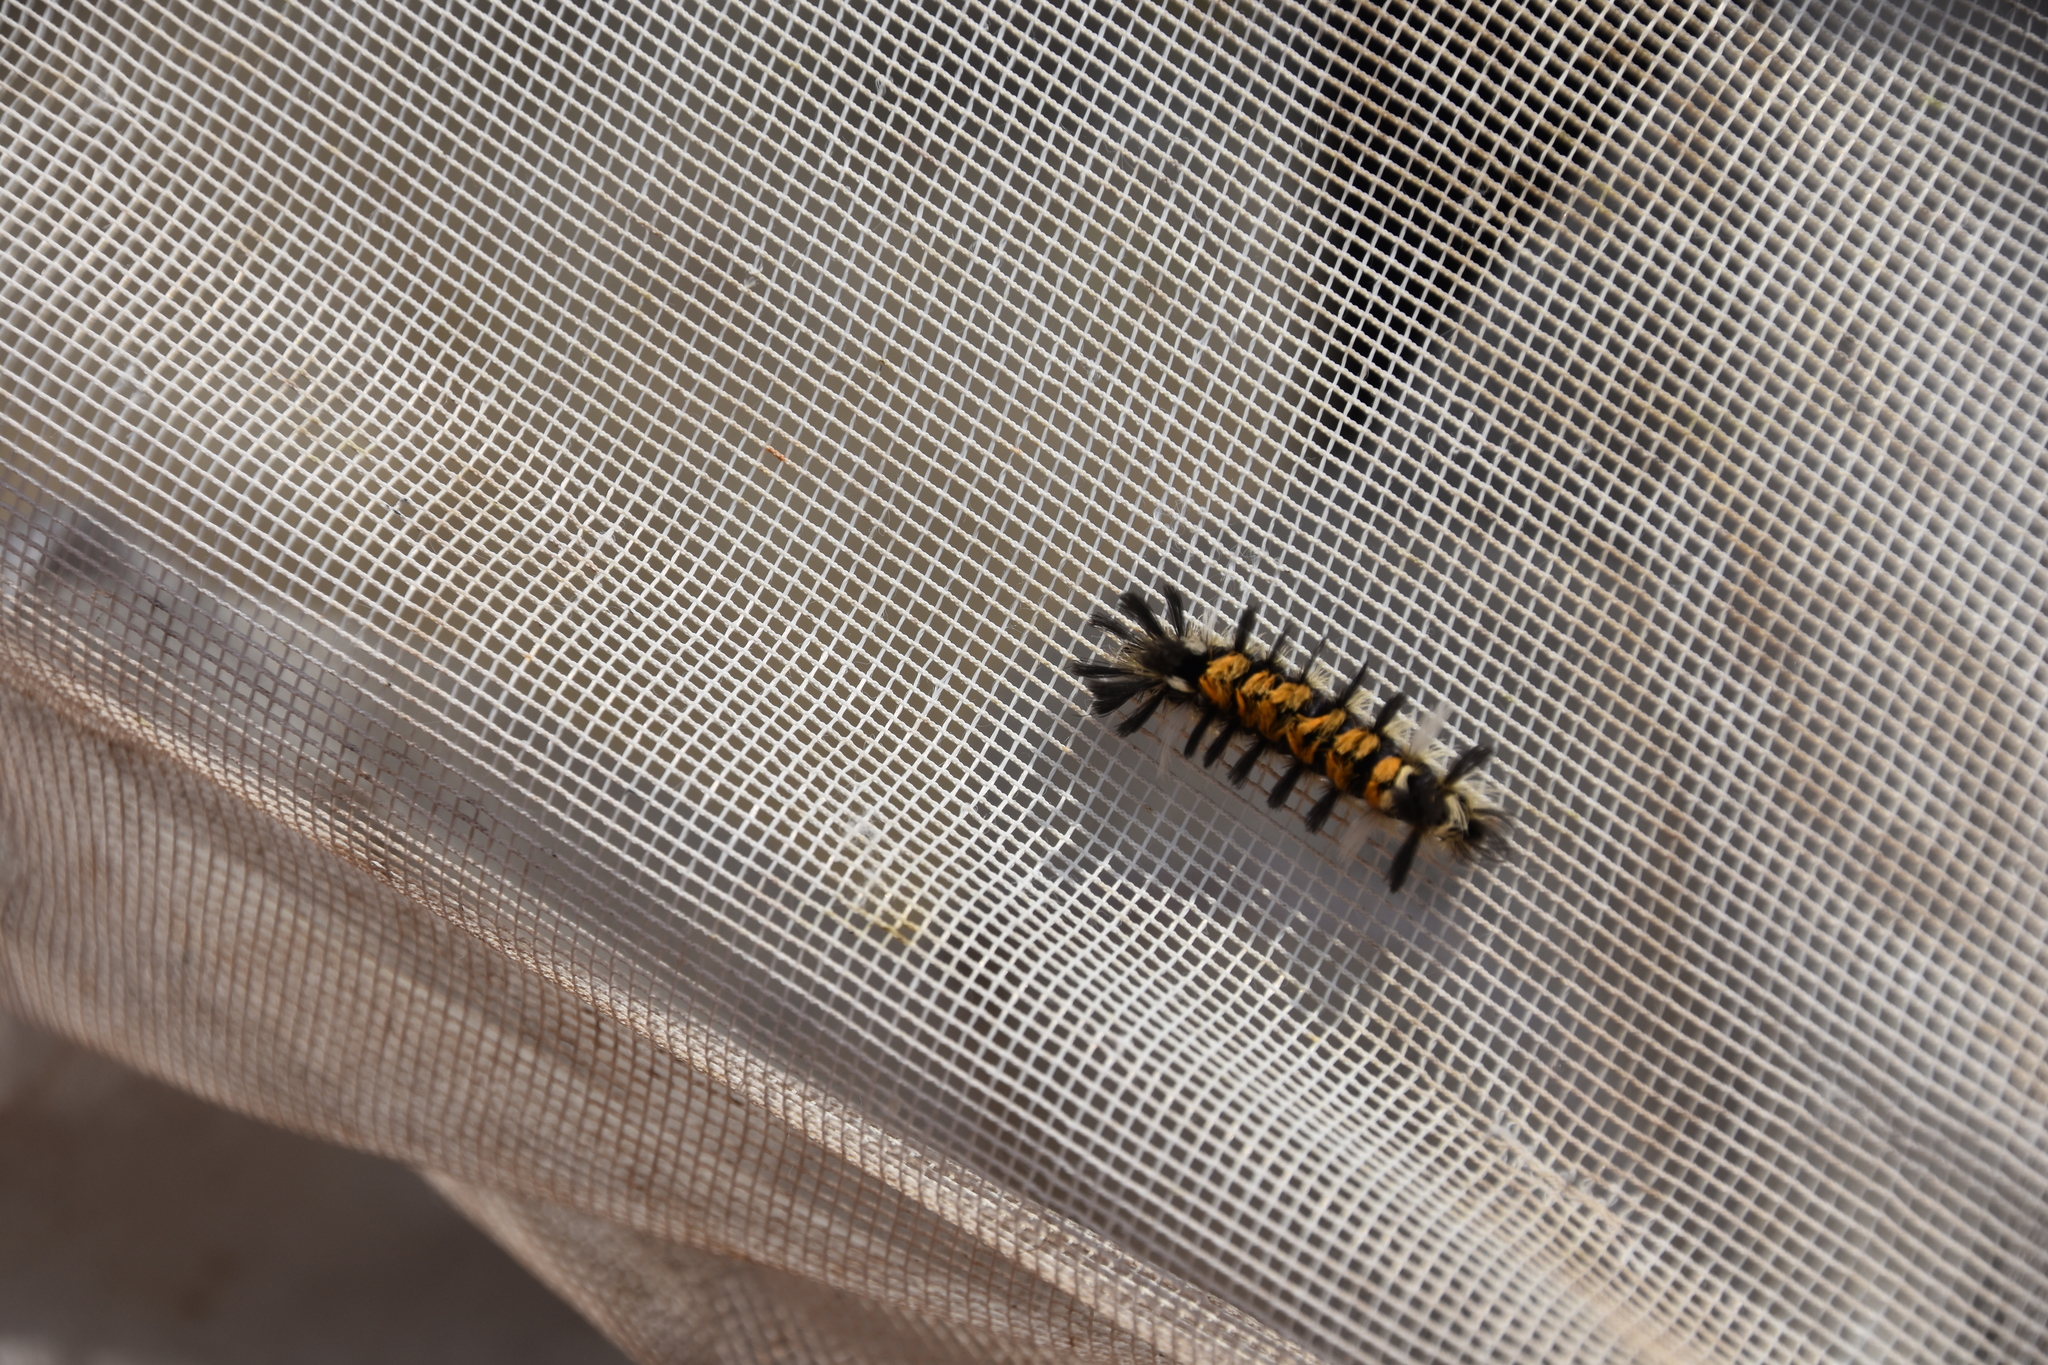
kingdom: Animalia
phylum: Arthropoda
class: Insecta
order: Lepidoptera
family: Erebidae
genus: Euchaetes
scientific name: Euchaetes egle
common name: Milkweed tussock moth
